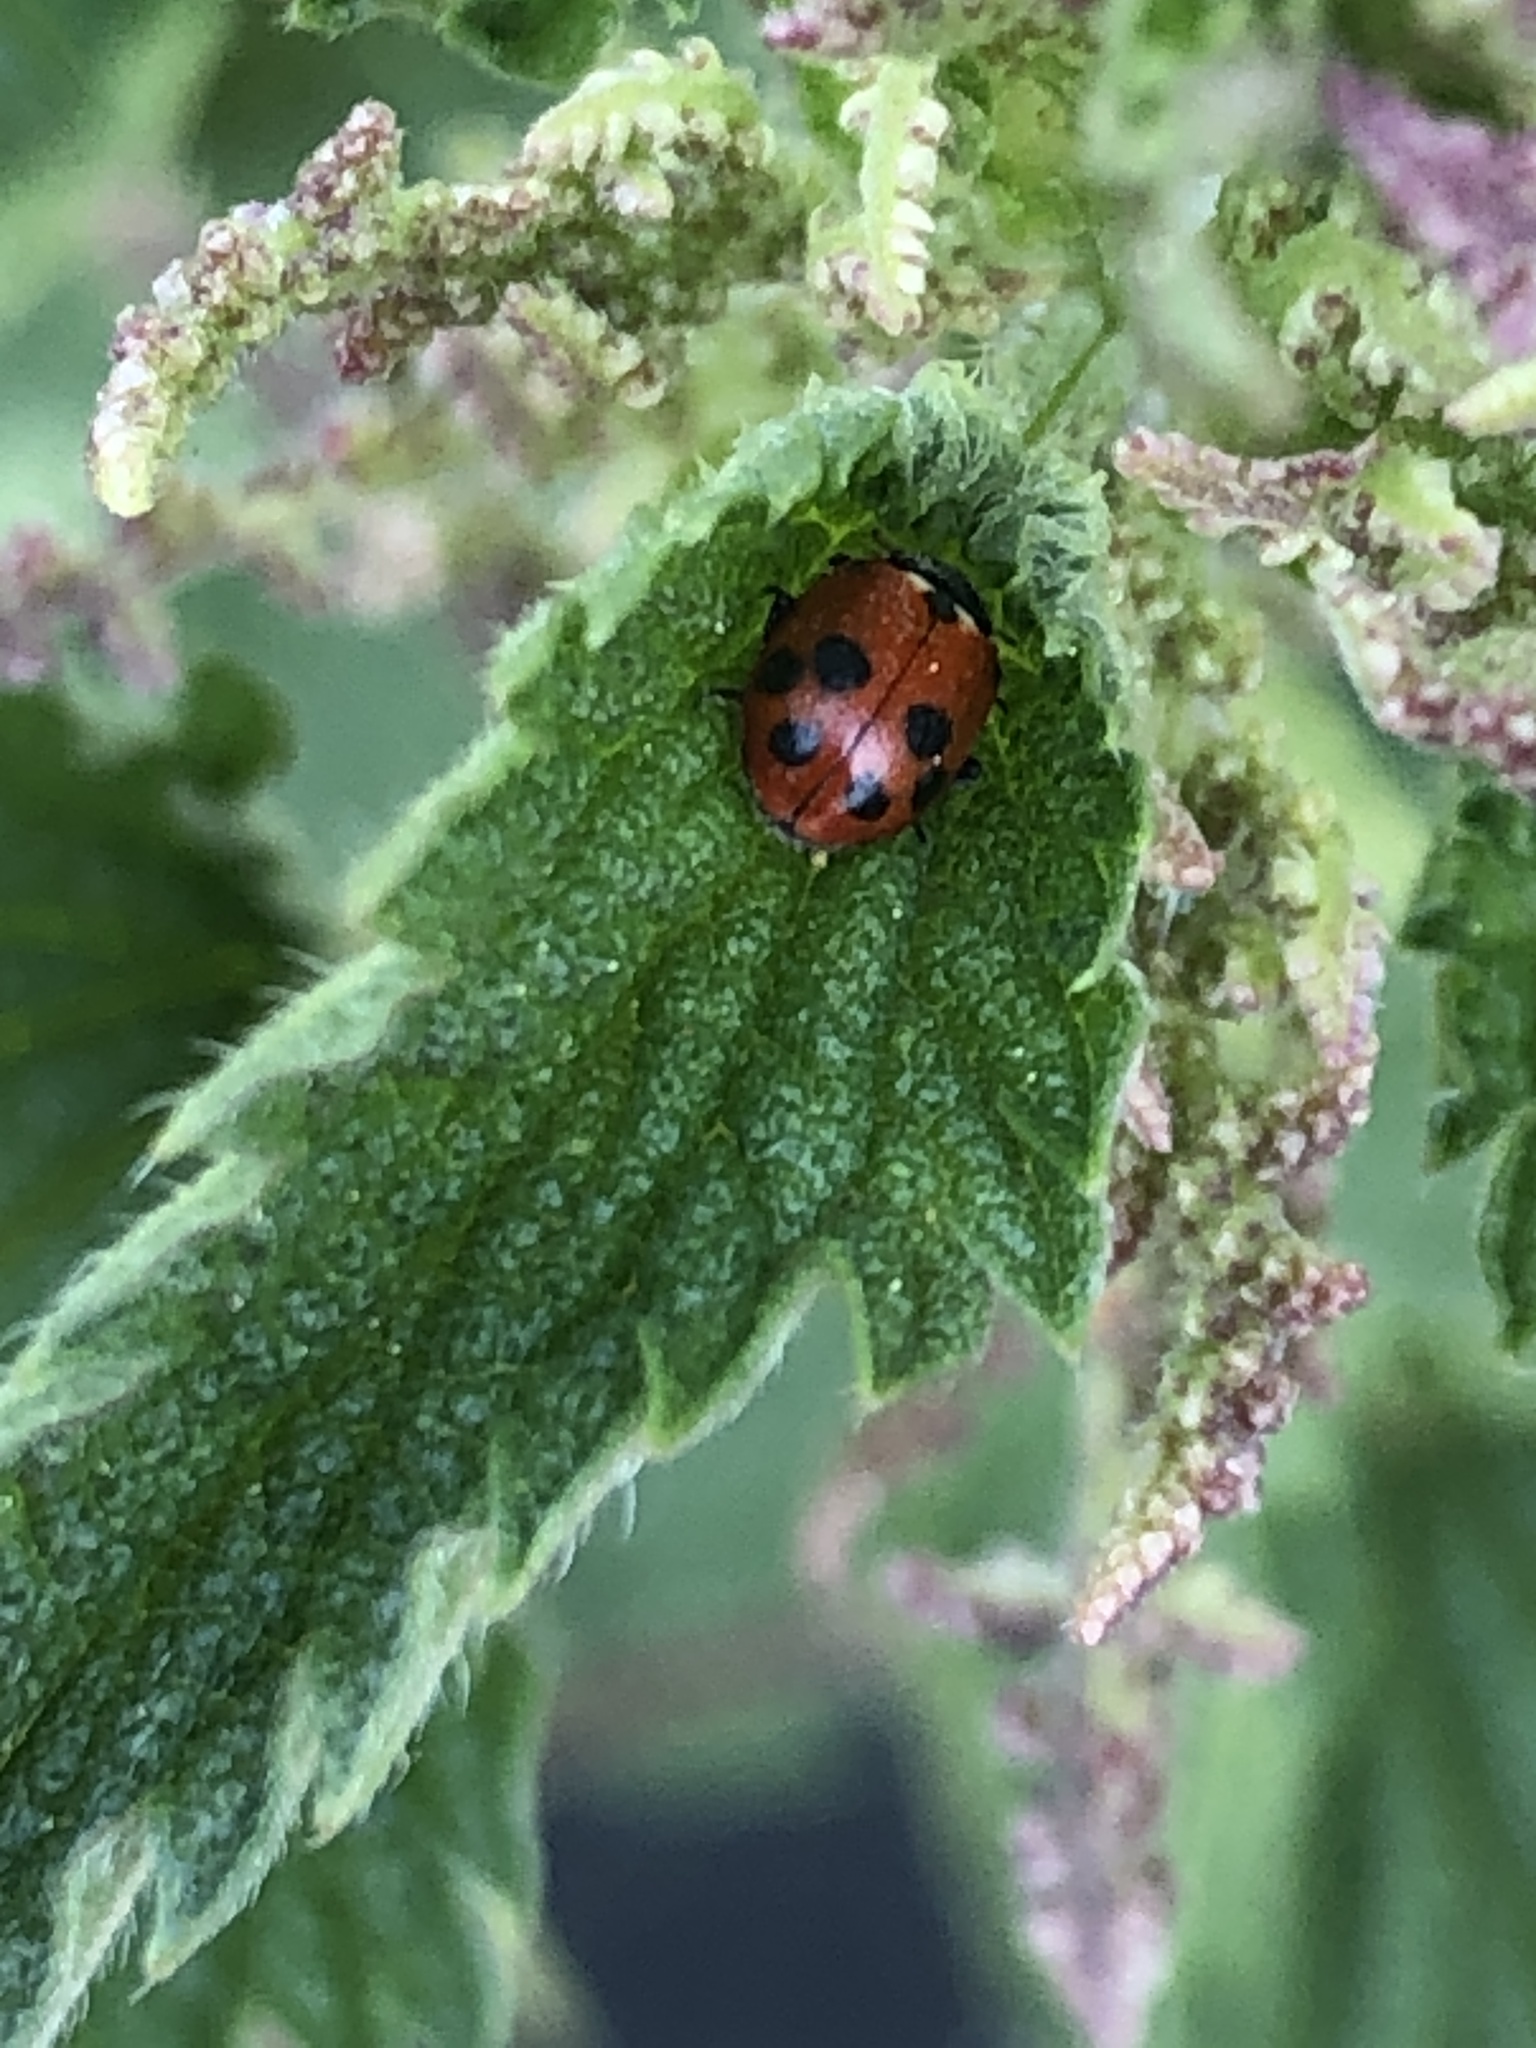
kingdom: Animalia
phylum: Arthropoda
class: Insecta
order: Coleoptera
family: Coccinellidae
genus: Hippodamia
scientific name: Hippodamia variegata
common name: Ladybird beetle
